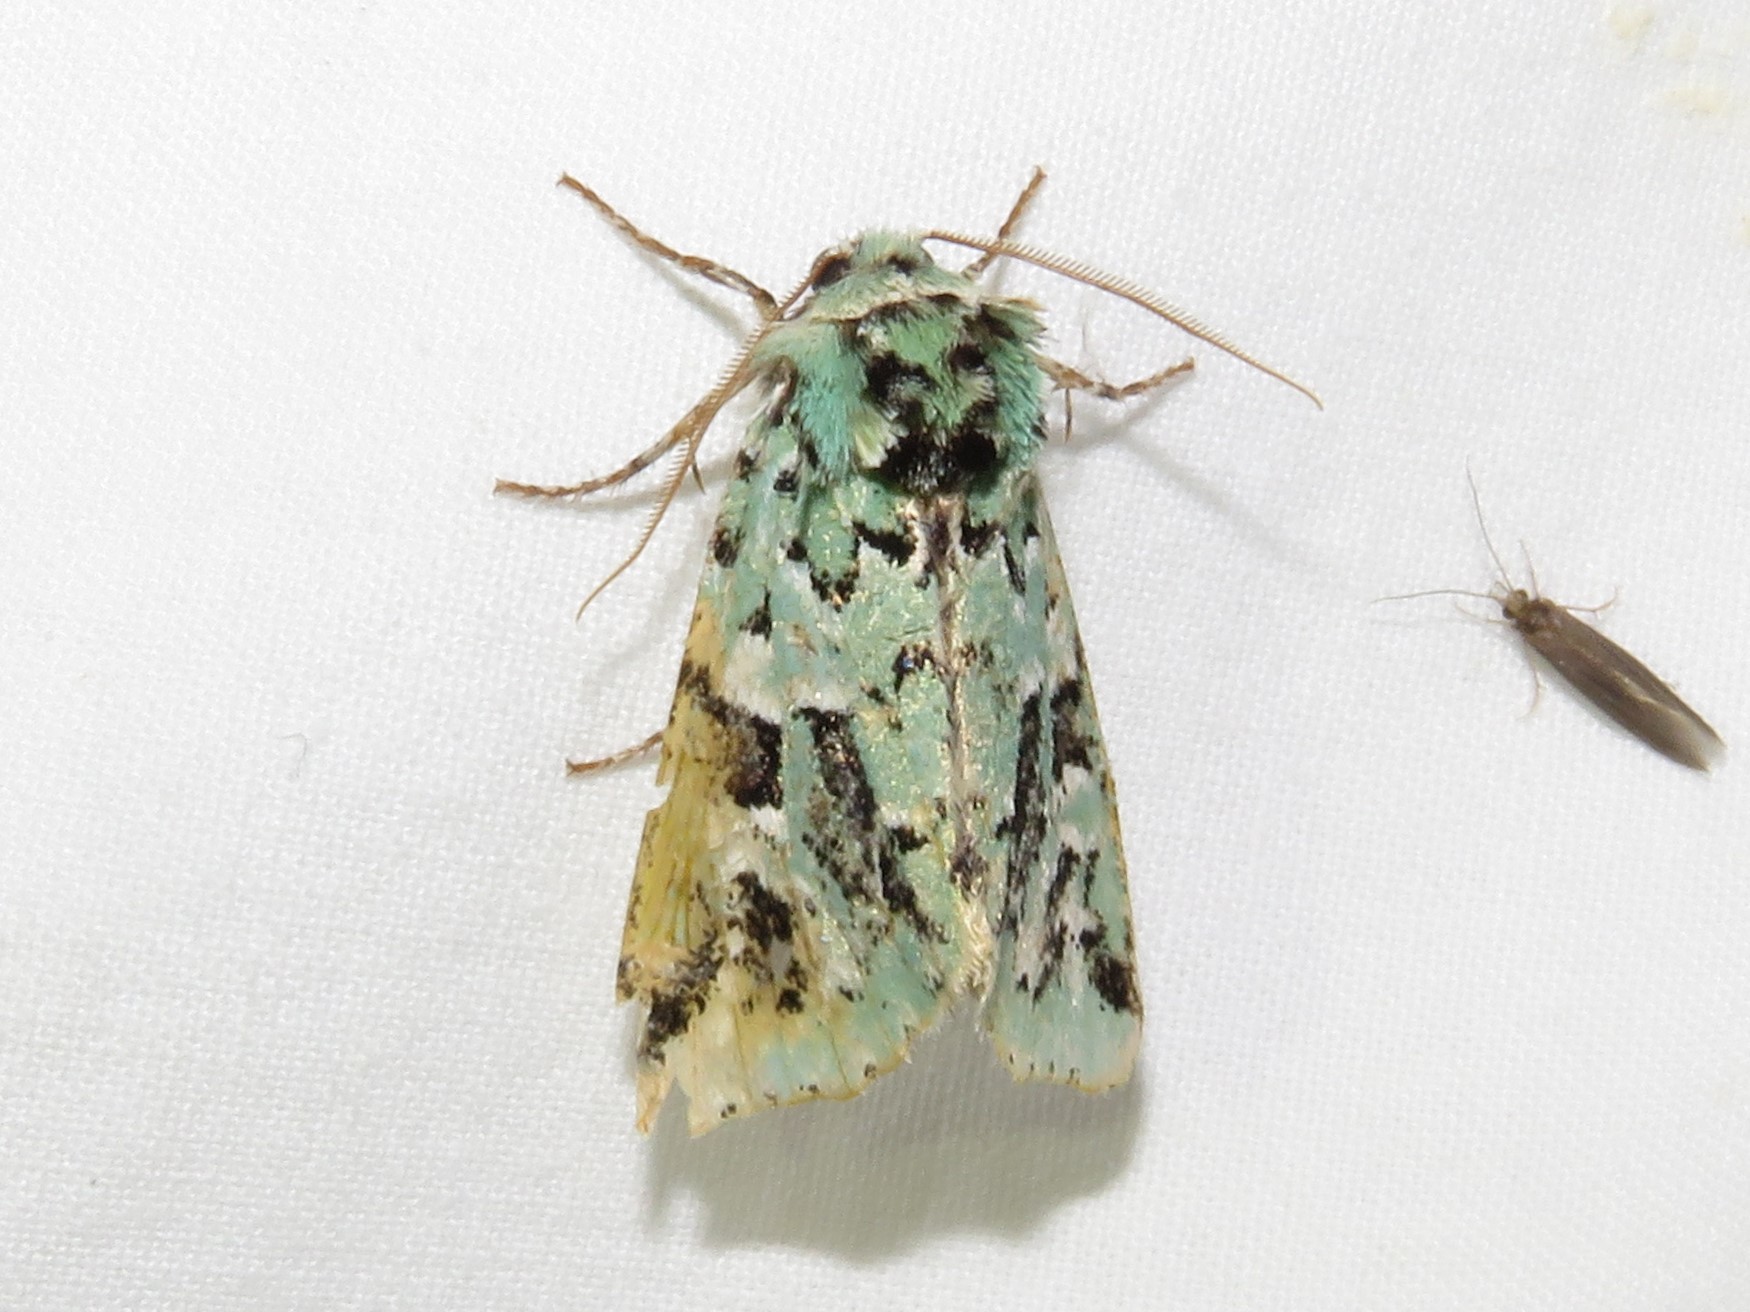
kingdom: Animalia
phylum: Arthropoda
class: Insecta
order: Lepidoptera
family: Noctuidae
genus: Feralia
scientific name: Feralia comstocki
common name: Comstock's sallow
